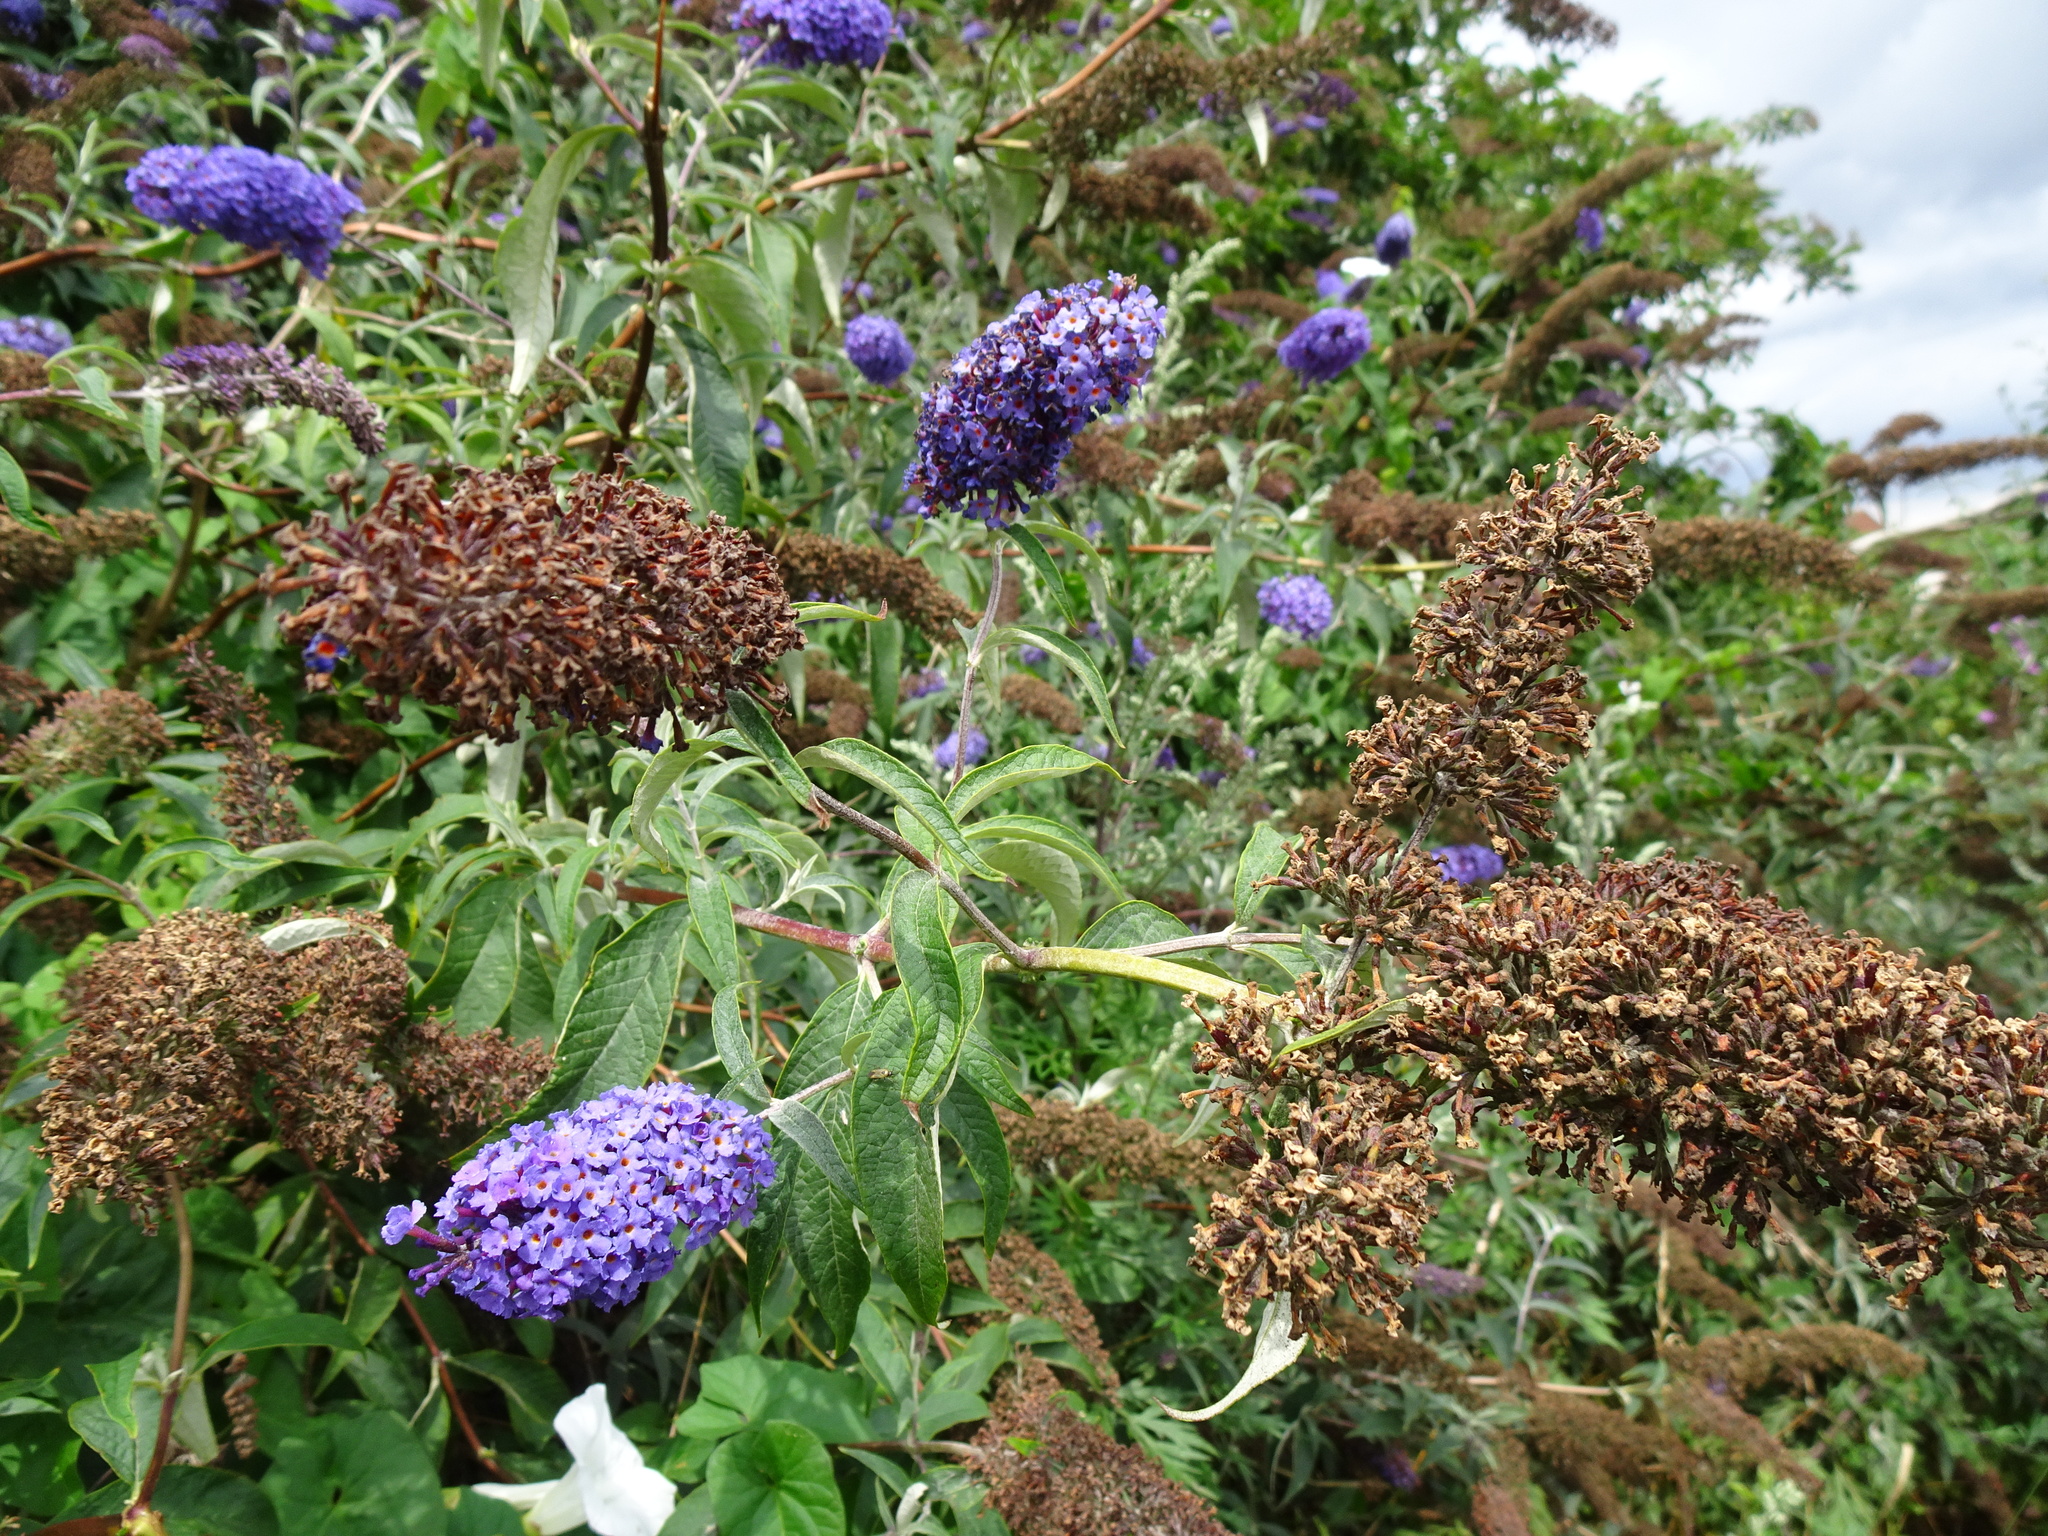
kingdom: Plantae
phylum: Tracheophyta
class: Magnoliopsida
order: Lamiales
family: Scrophulariaceae
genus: Buddleja
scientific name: Buddleja davidii
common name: Butterfly-bush
